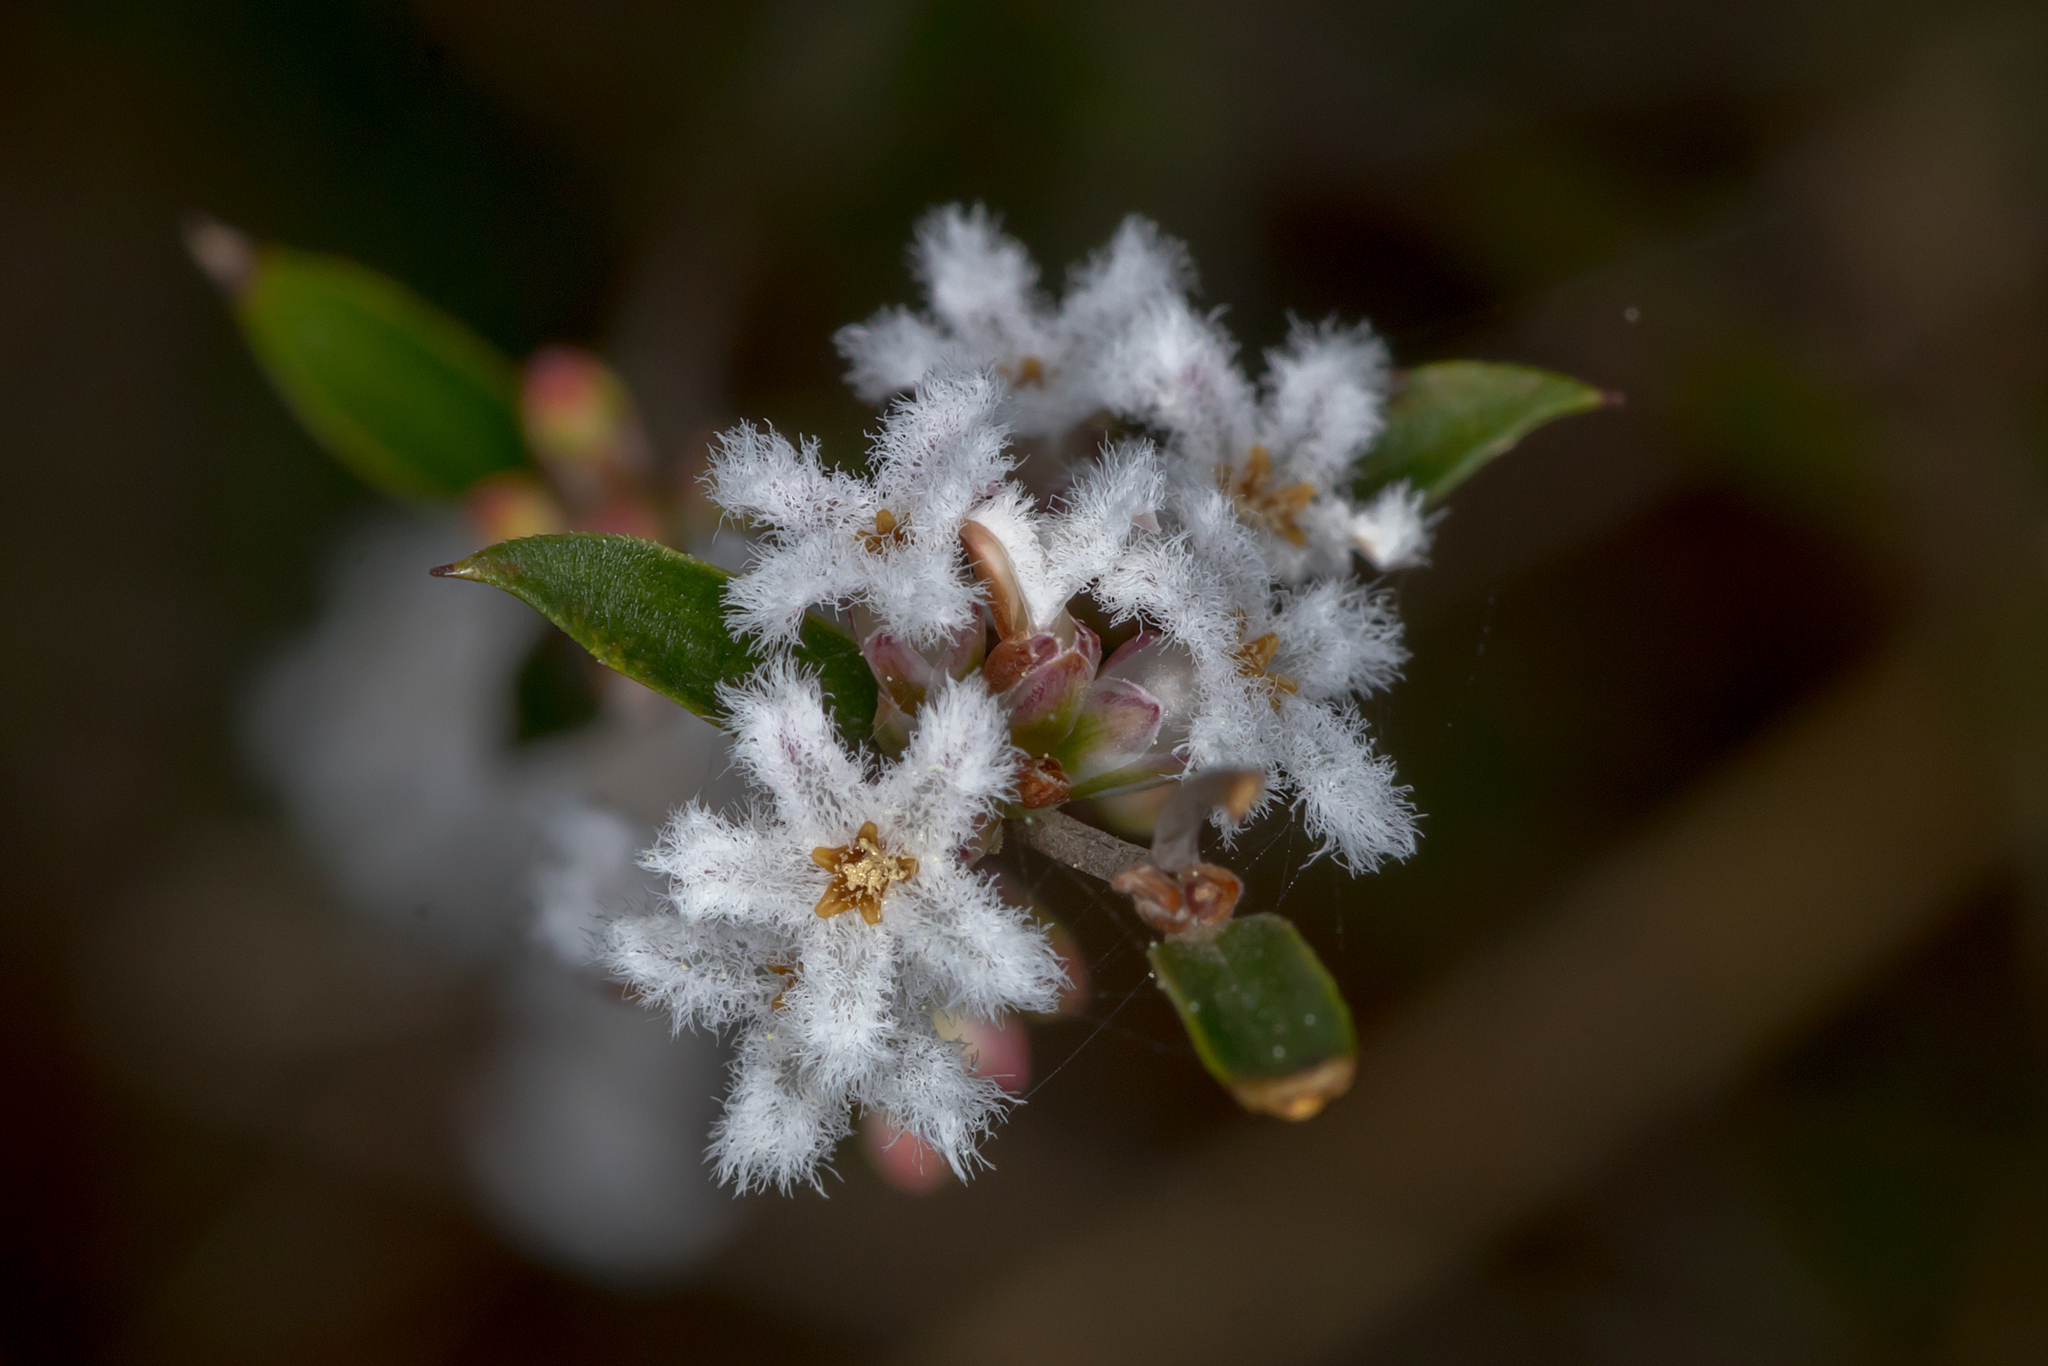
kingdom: Plantae
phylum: Tracheophyta
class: Magnoliopsida
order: Ericales
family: Ericaceae
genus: Leucopogon
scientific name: Leucopogon virgatus
